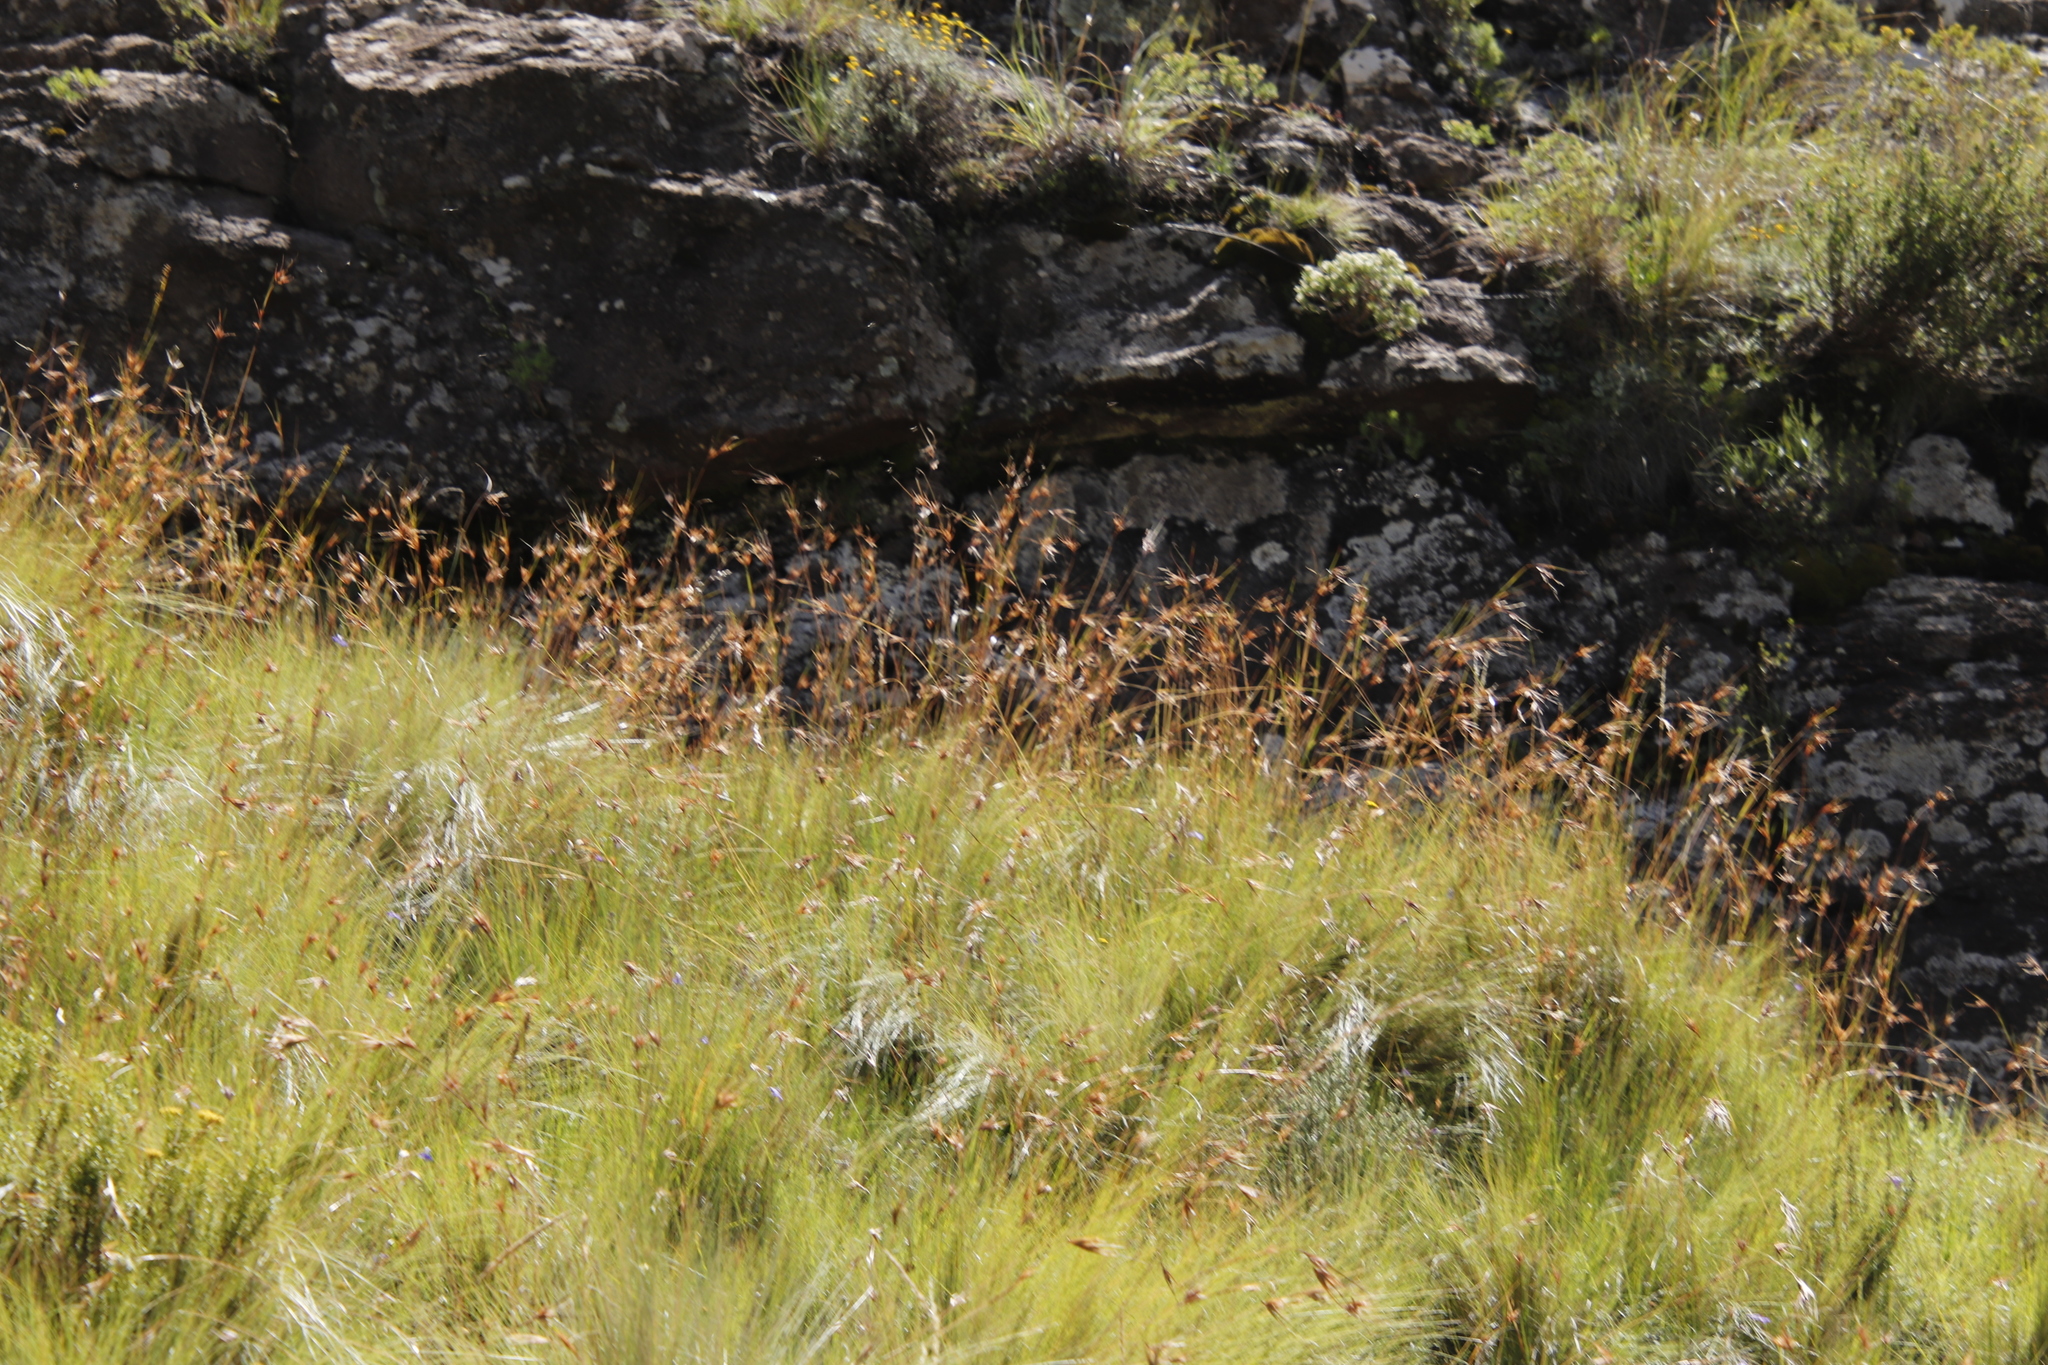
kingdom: Plantae
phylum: Tracheophyta
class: Liliopsida
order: Poales
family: Poaceae
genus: Themeda
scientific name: Themeda triandra
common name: Kangaroo grass
